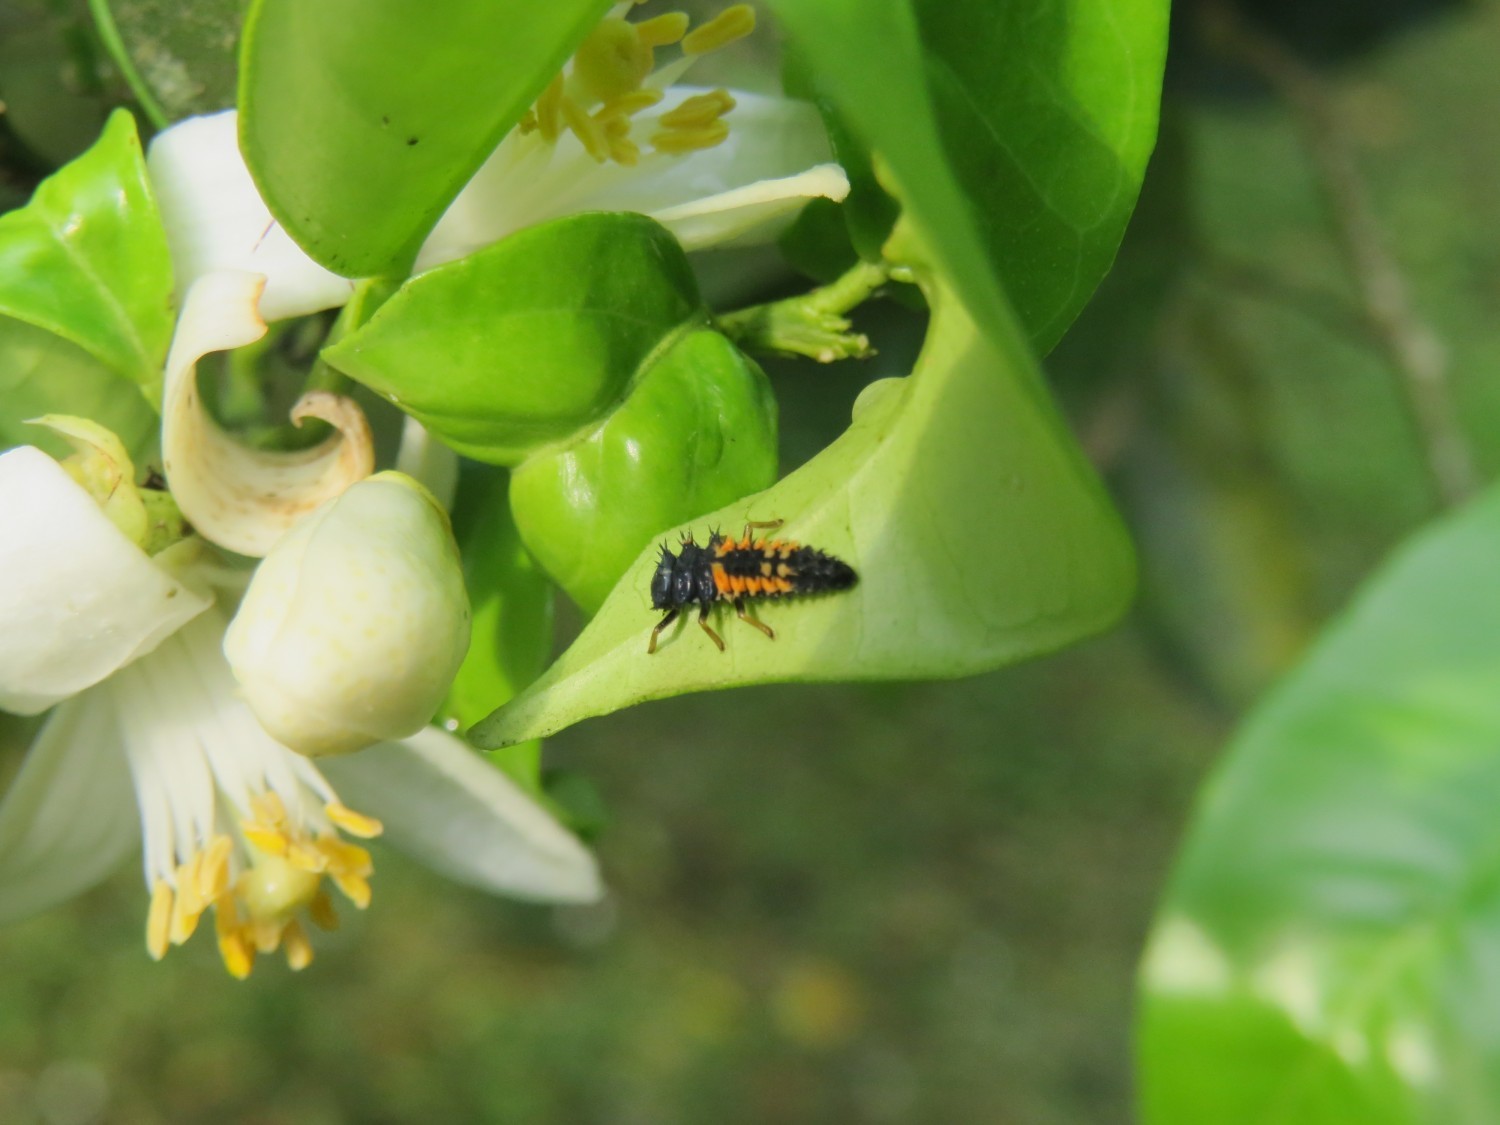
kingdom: Animalia
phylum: Arthropoda
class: Insecta
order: Coleoptera
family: Coccinellidae
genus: Harmonia
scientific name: Harmonia axyridis
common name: Harlequin ladybird
